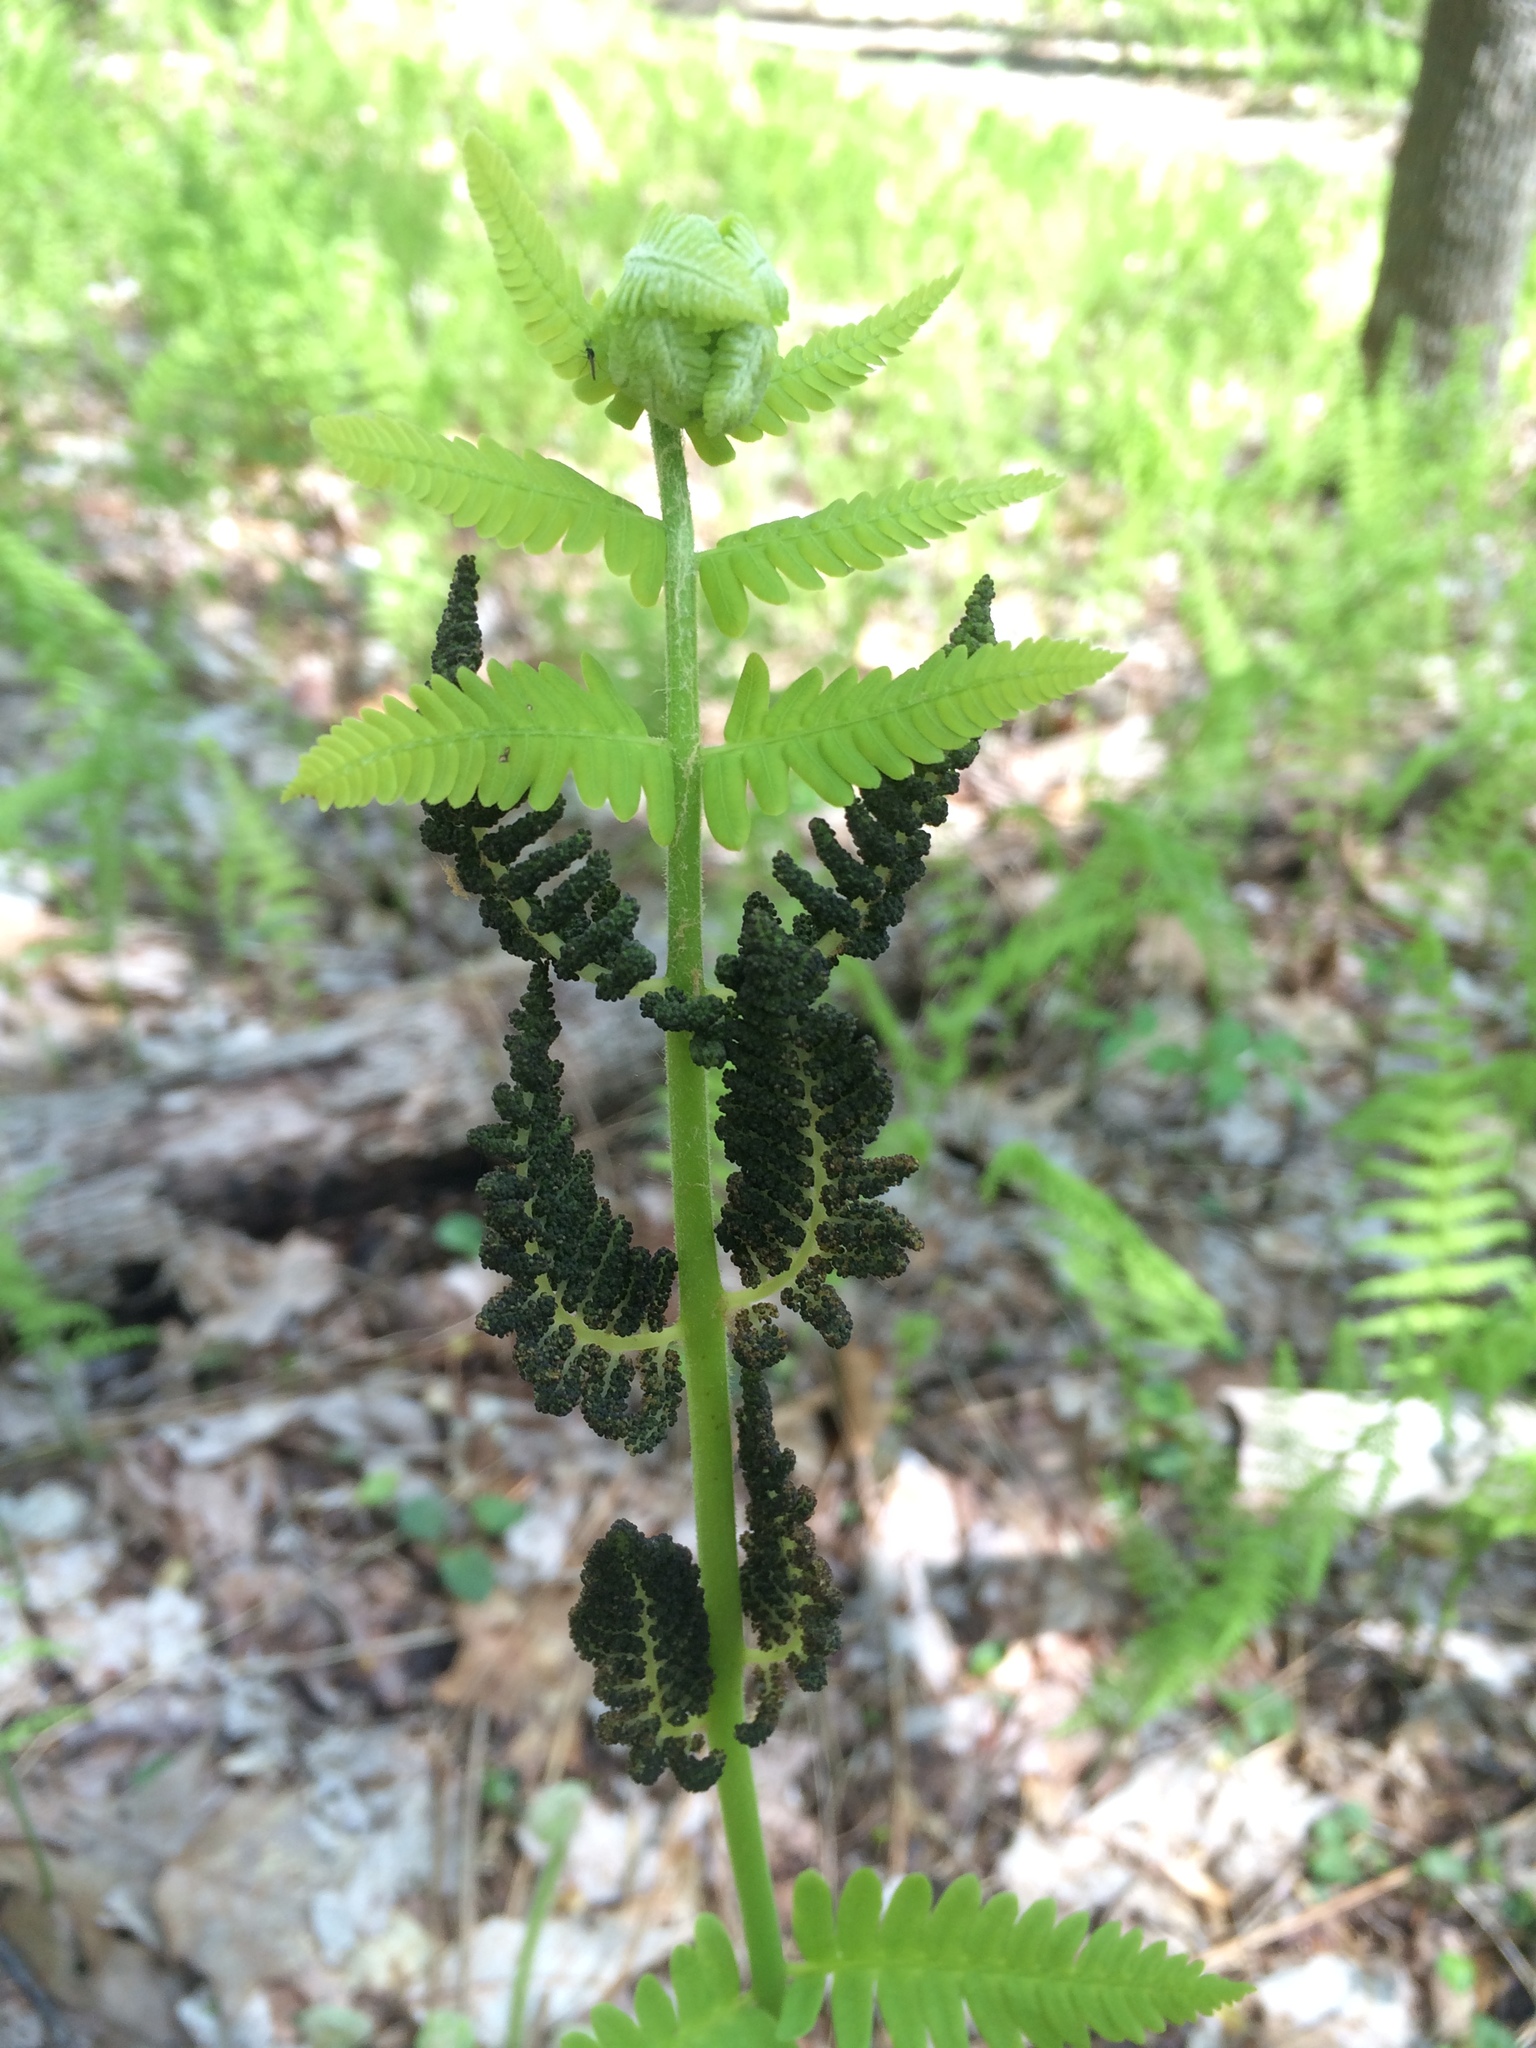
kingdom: Plantae
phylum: Tracheophyta
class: Polypodiopsida
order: Osmundales
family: Osmundaceae
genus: Claytosmunda
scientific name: Claytosmunda claytoniana
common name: Clayton's fern
